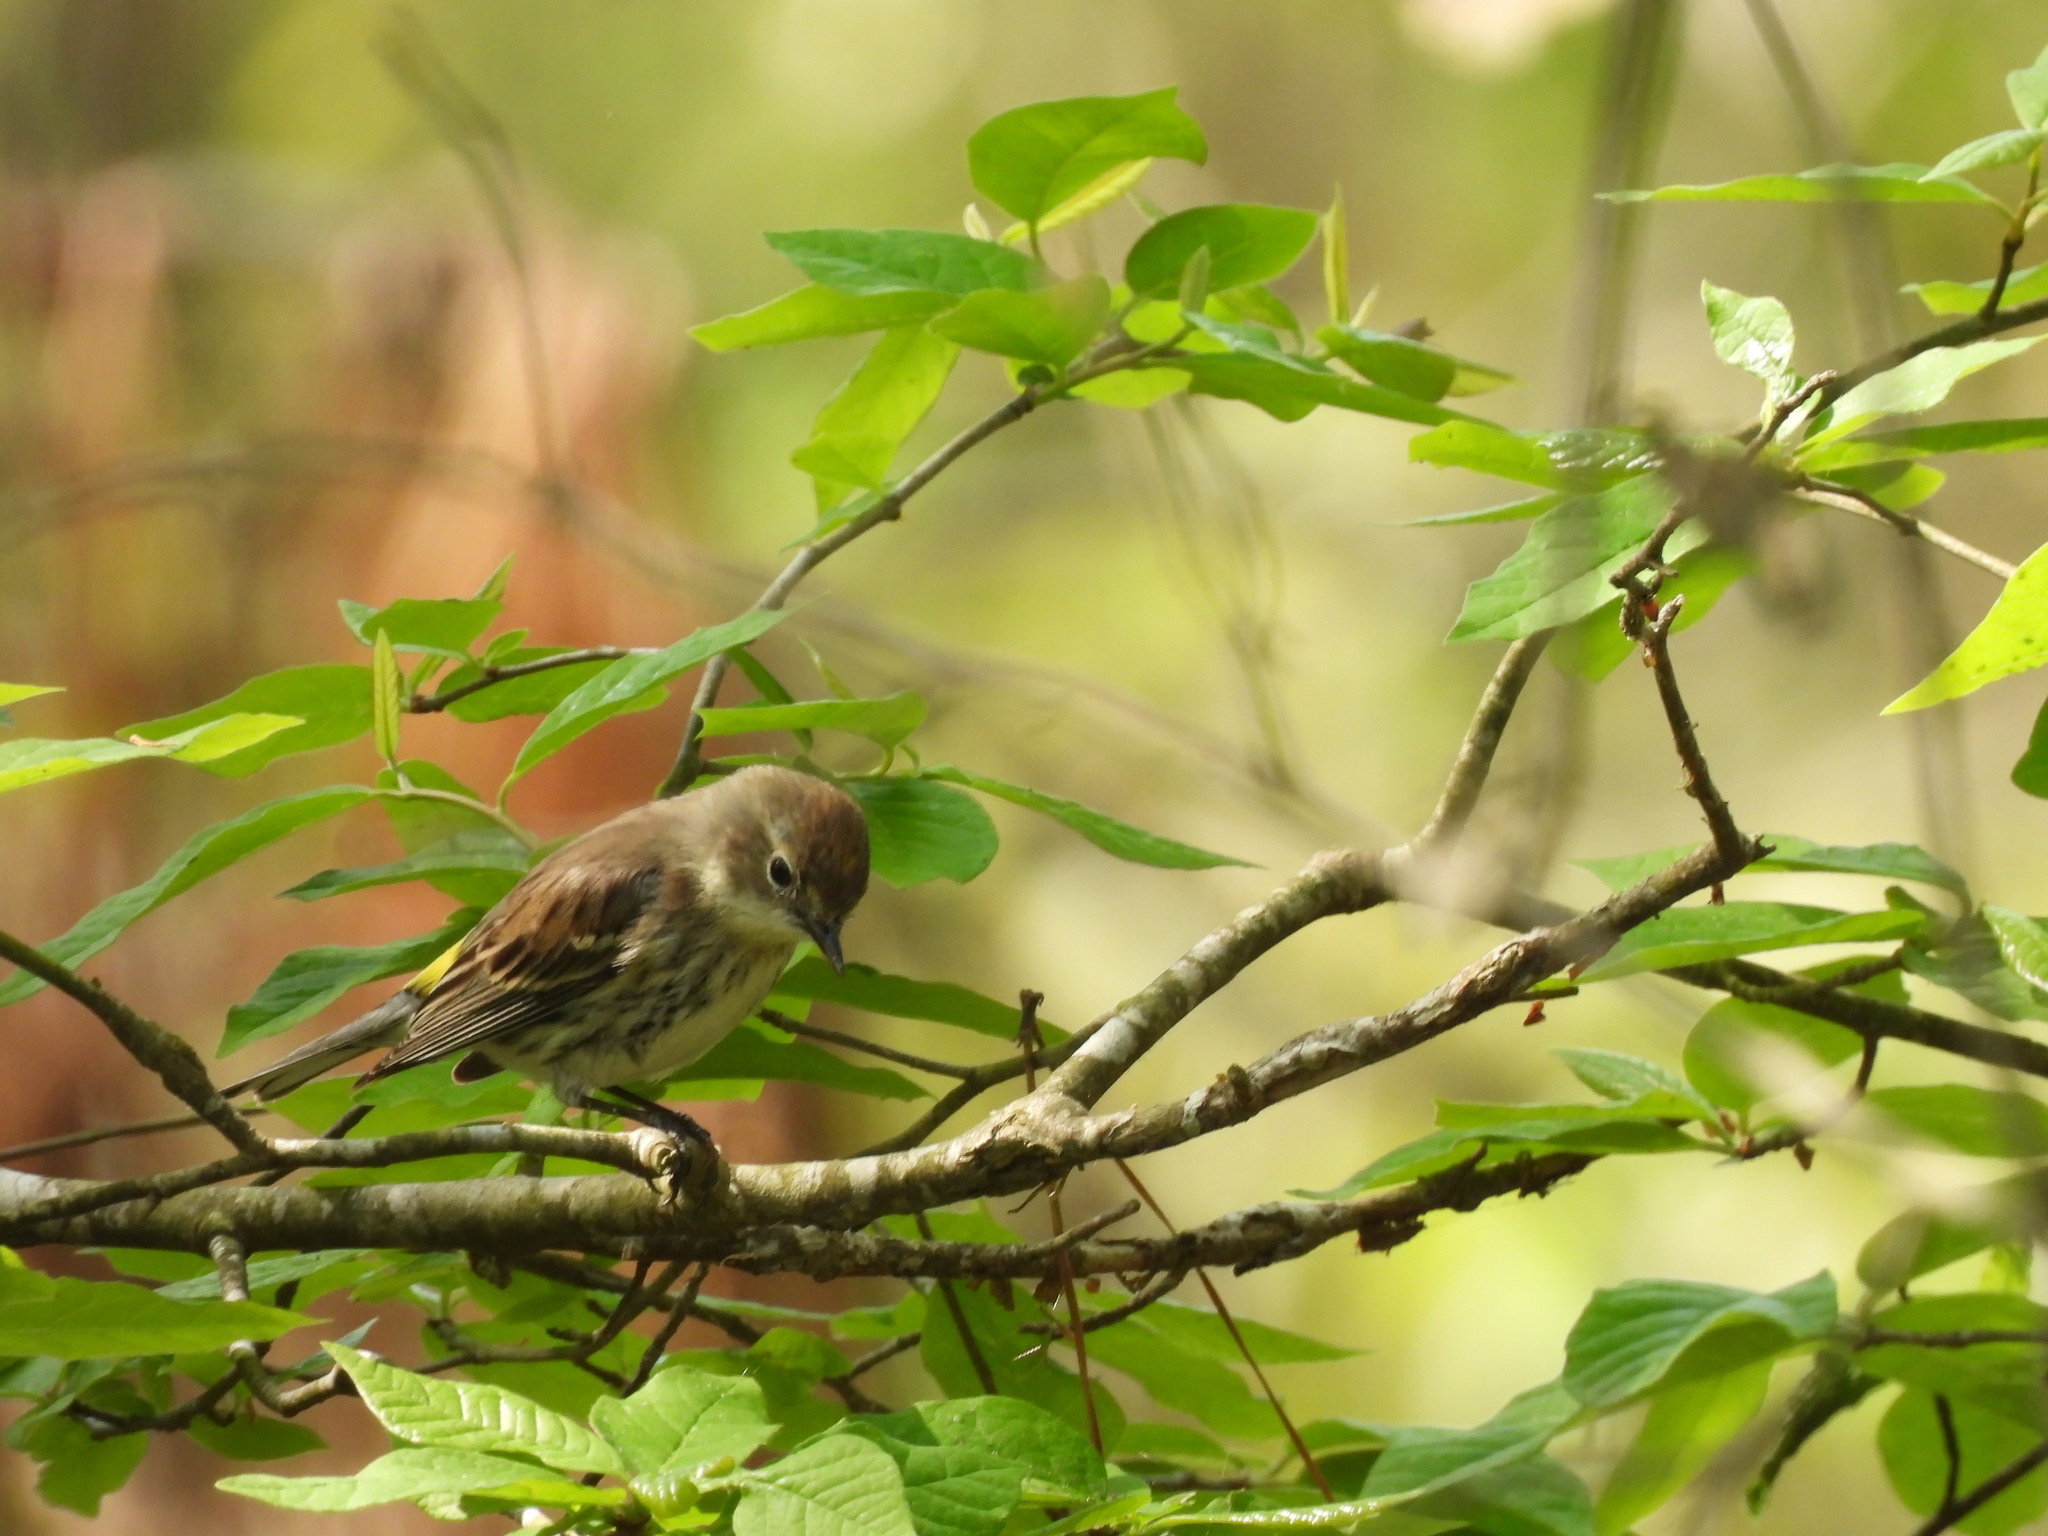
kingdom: Animalia
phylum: Chordata
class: Aves
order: Passeriformes
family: Parulidae
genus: Setophaga
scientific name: Setophaga coronata
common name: Myrtle warbler
